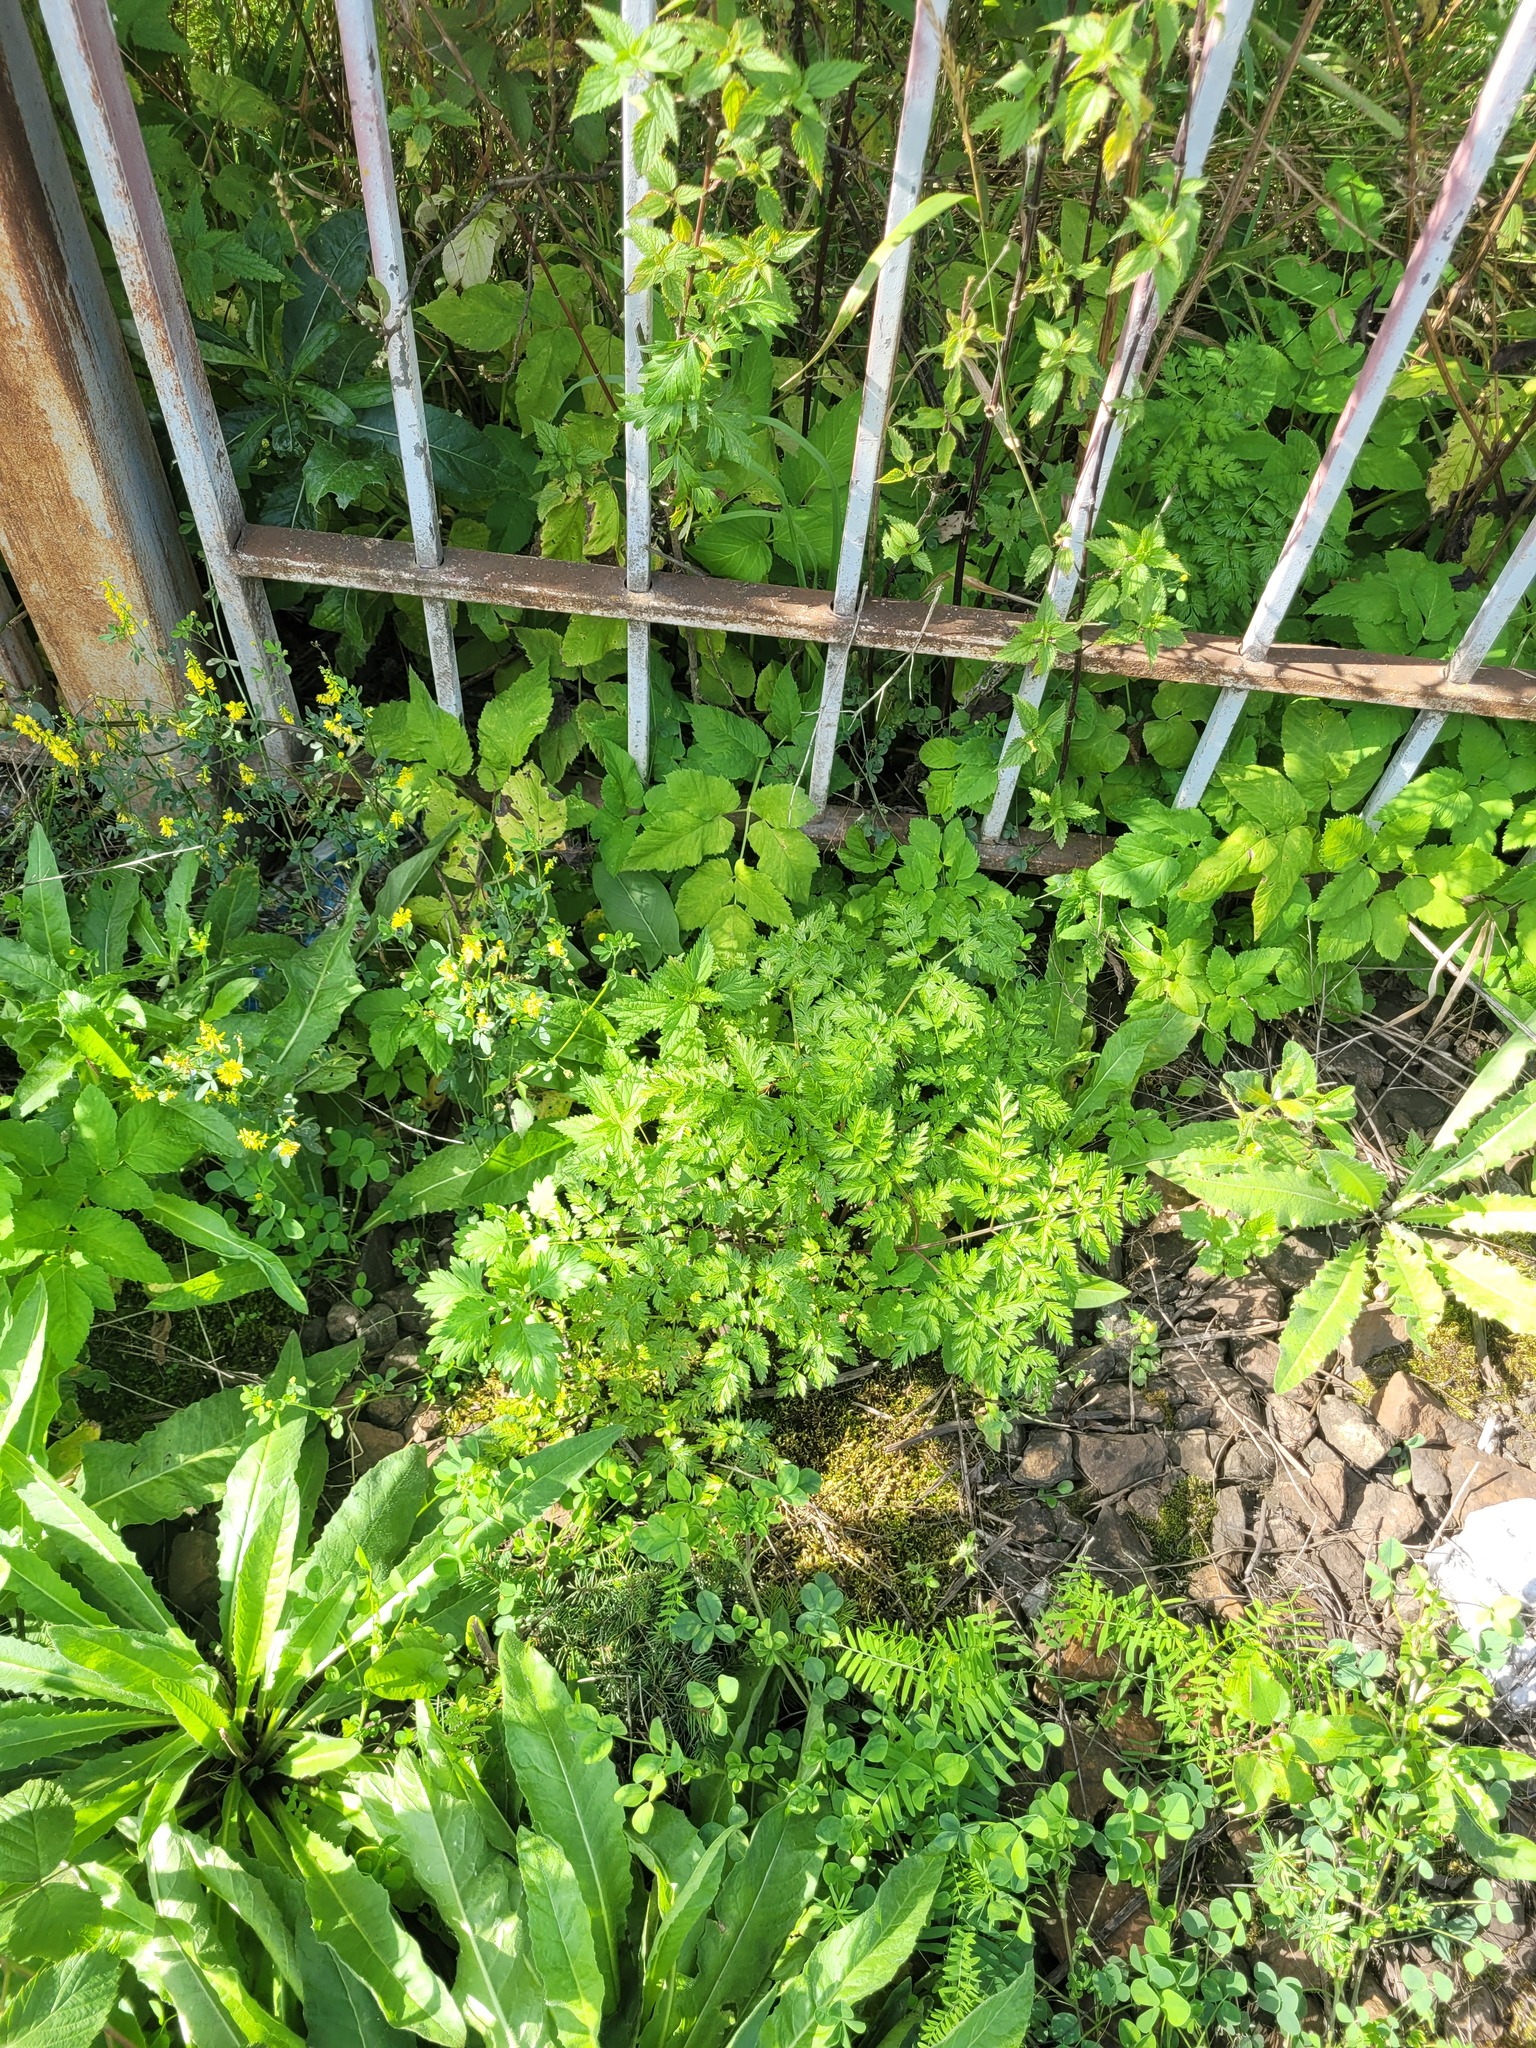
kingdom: Plantae
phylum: Tracheophyta
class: Magnoliopsida
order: Apiales
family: Apiaceae
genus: Anthriscus
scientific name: Anthriscus sylvestris
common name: Cow parsley
